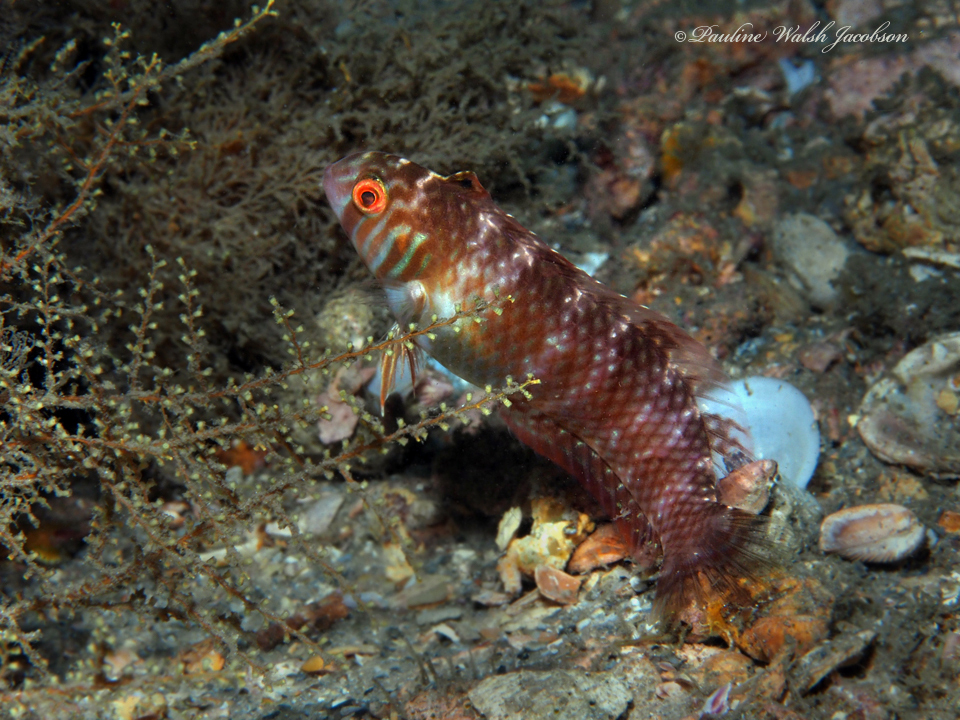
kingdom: Animalia
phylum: Chordata
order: Perciformes
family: Labridae
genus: Xyrichtys
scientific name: Xyrichtys splendens
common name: Green razorfish
